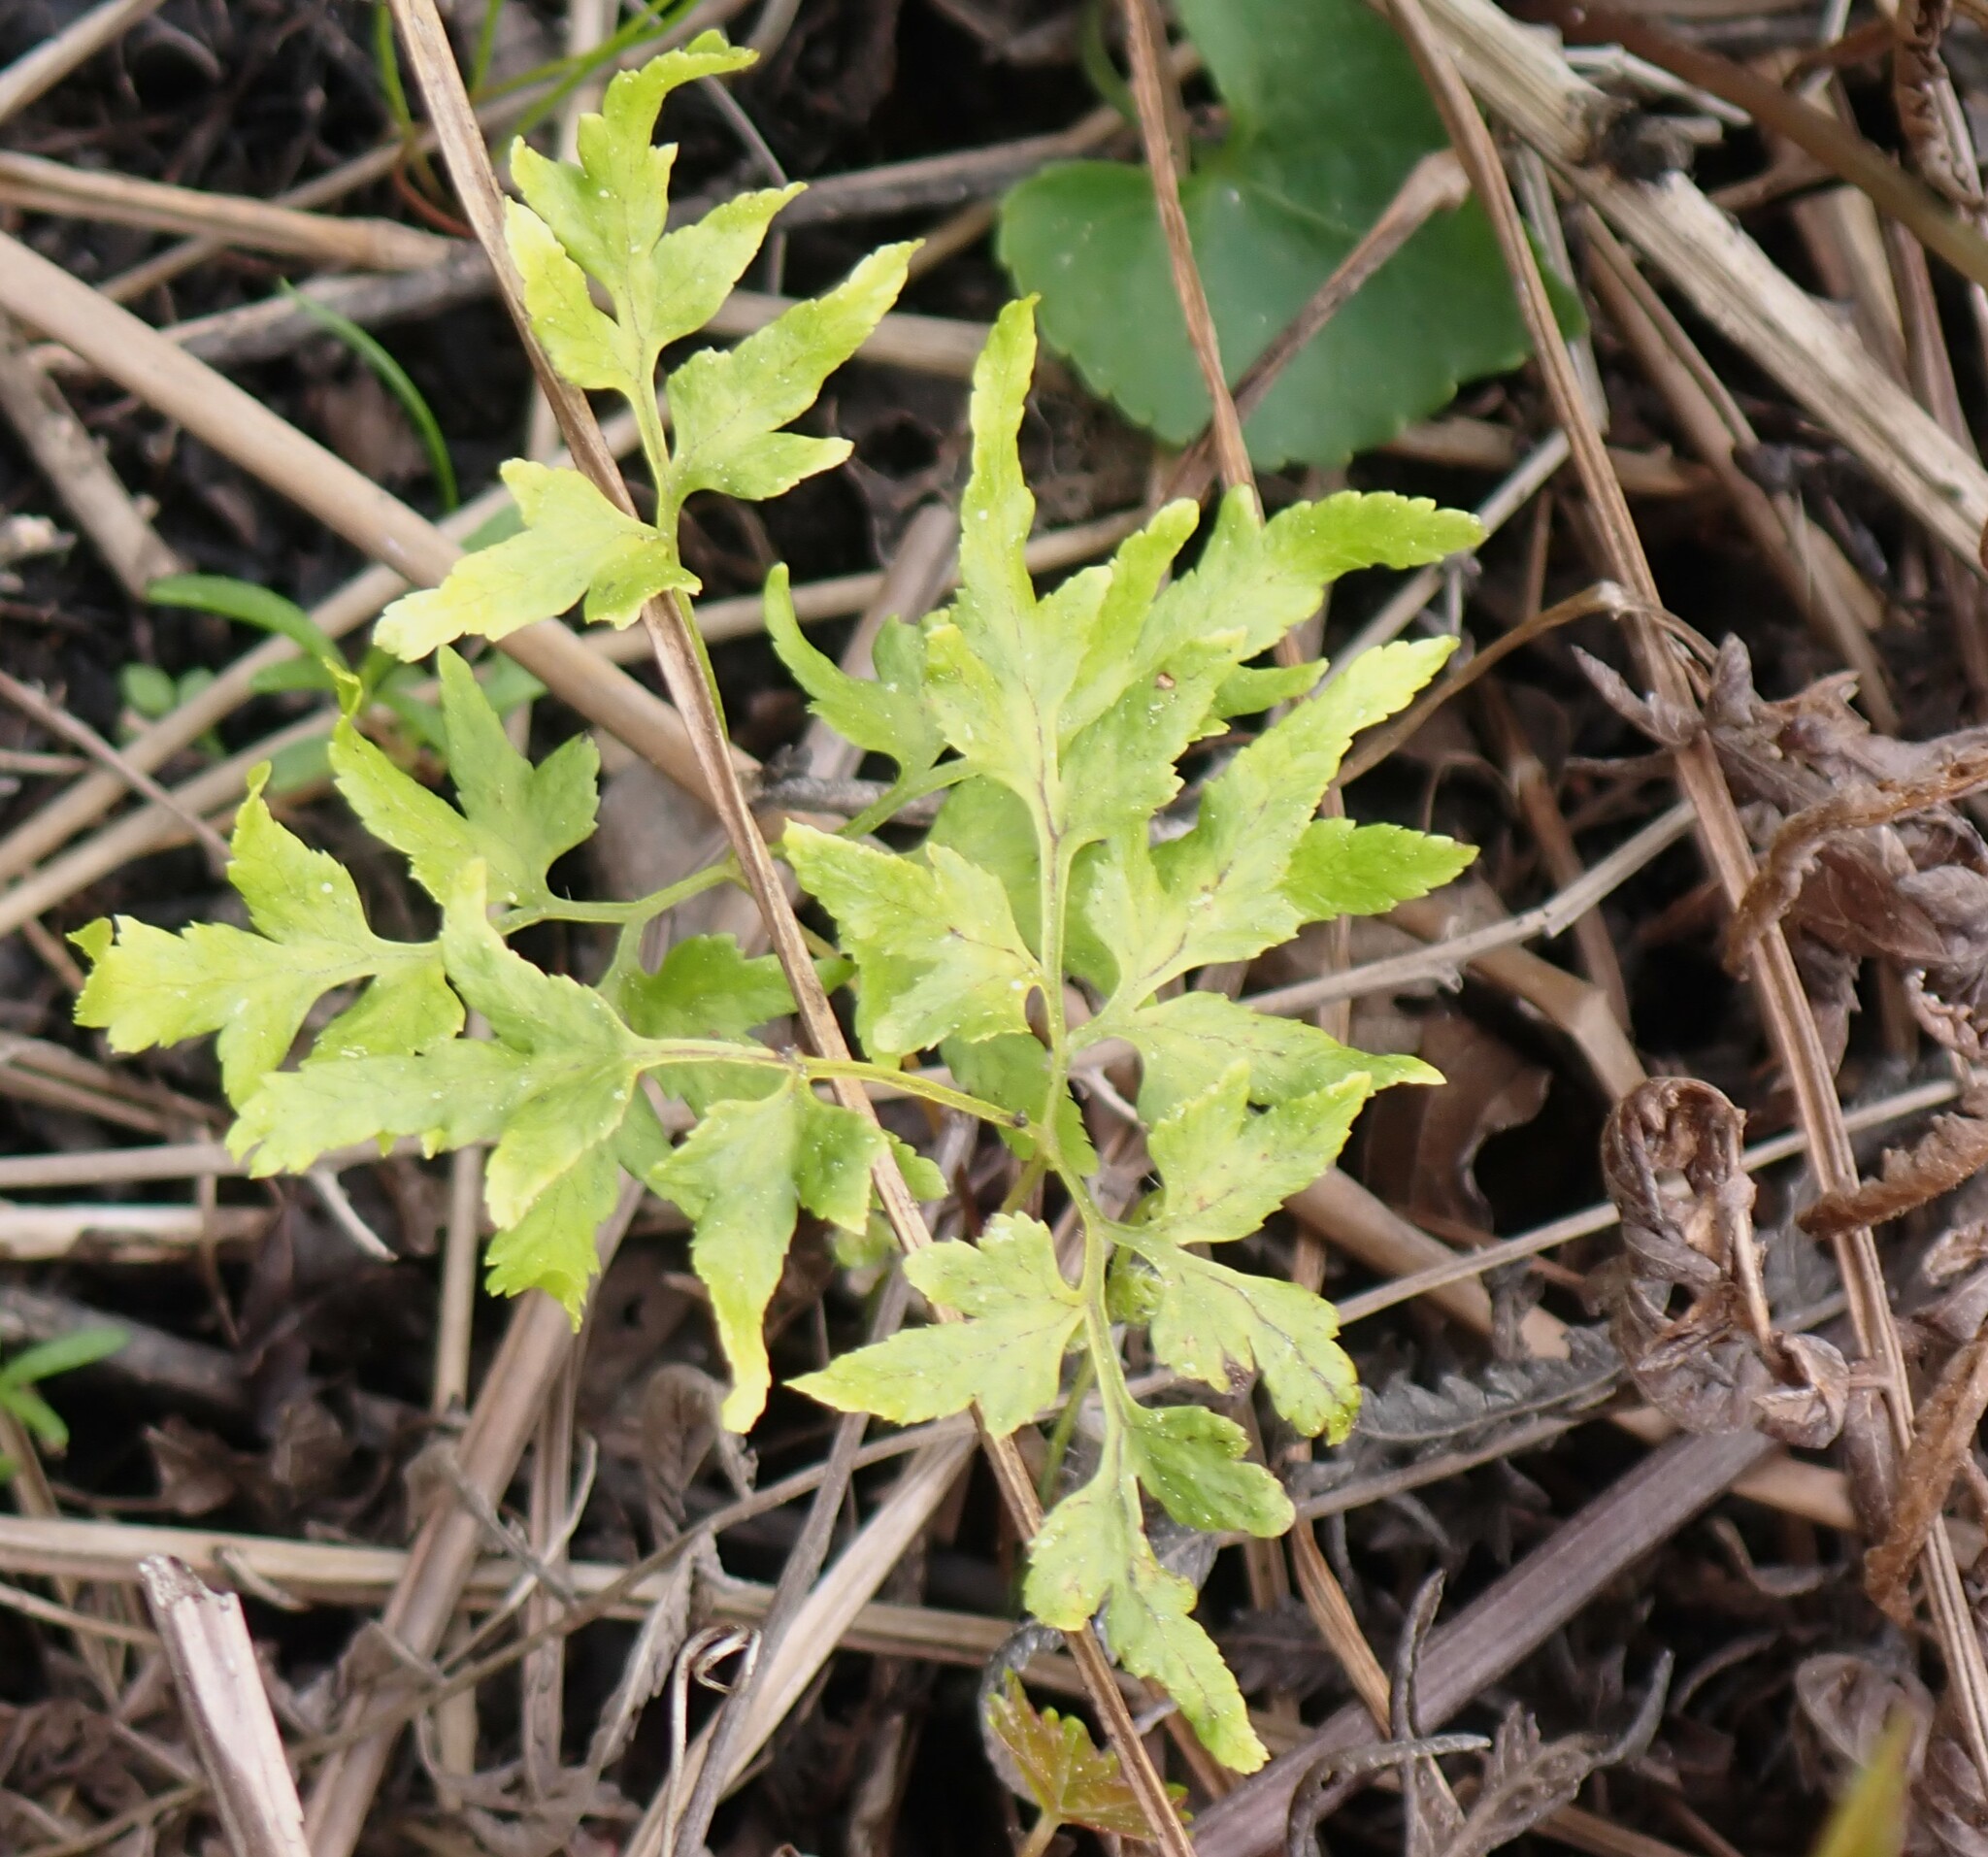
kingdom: Plantae
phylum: Tracheophyta
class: Polypodiopsida
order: Schizaeales
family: Lygodiaceae
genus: Lygodium
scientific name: Lygodium japonicum
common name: Japanese climbing fern
